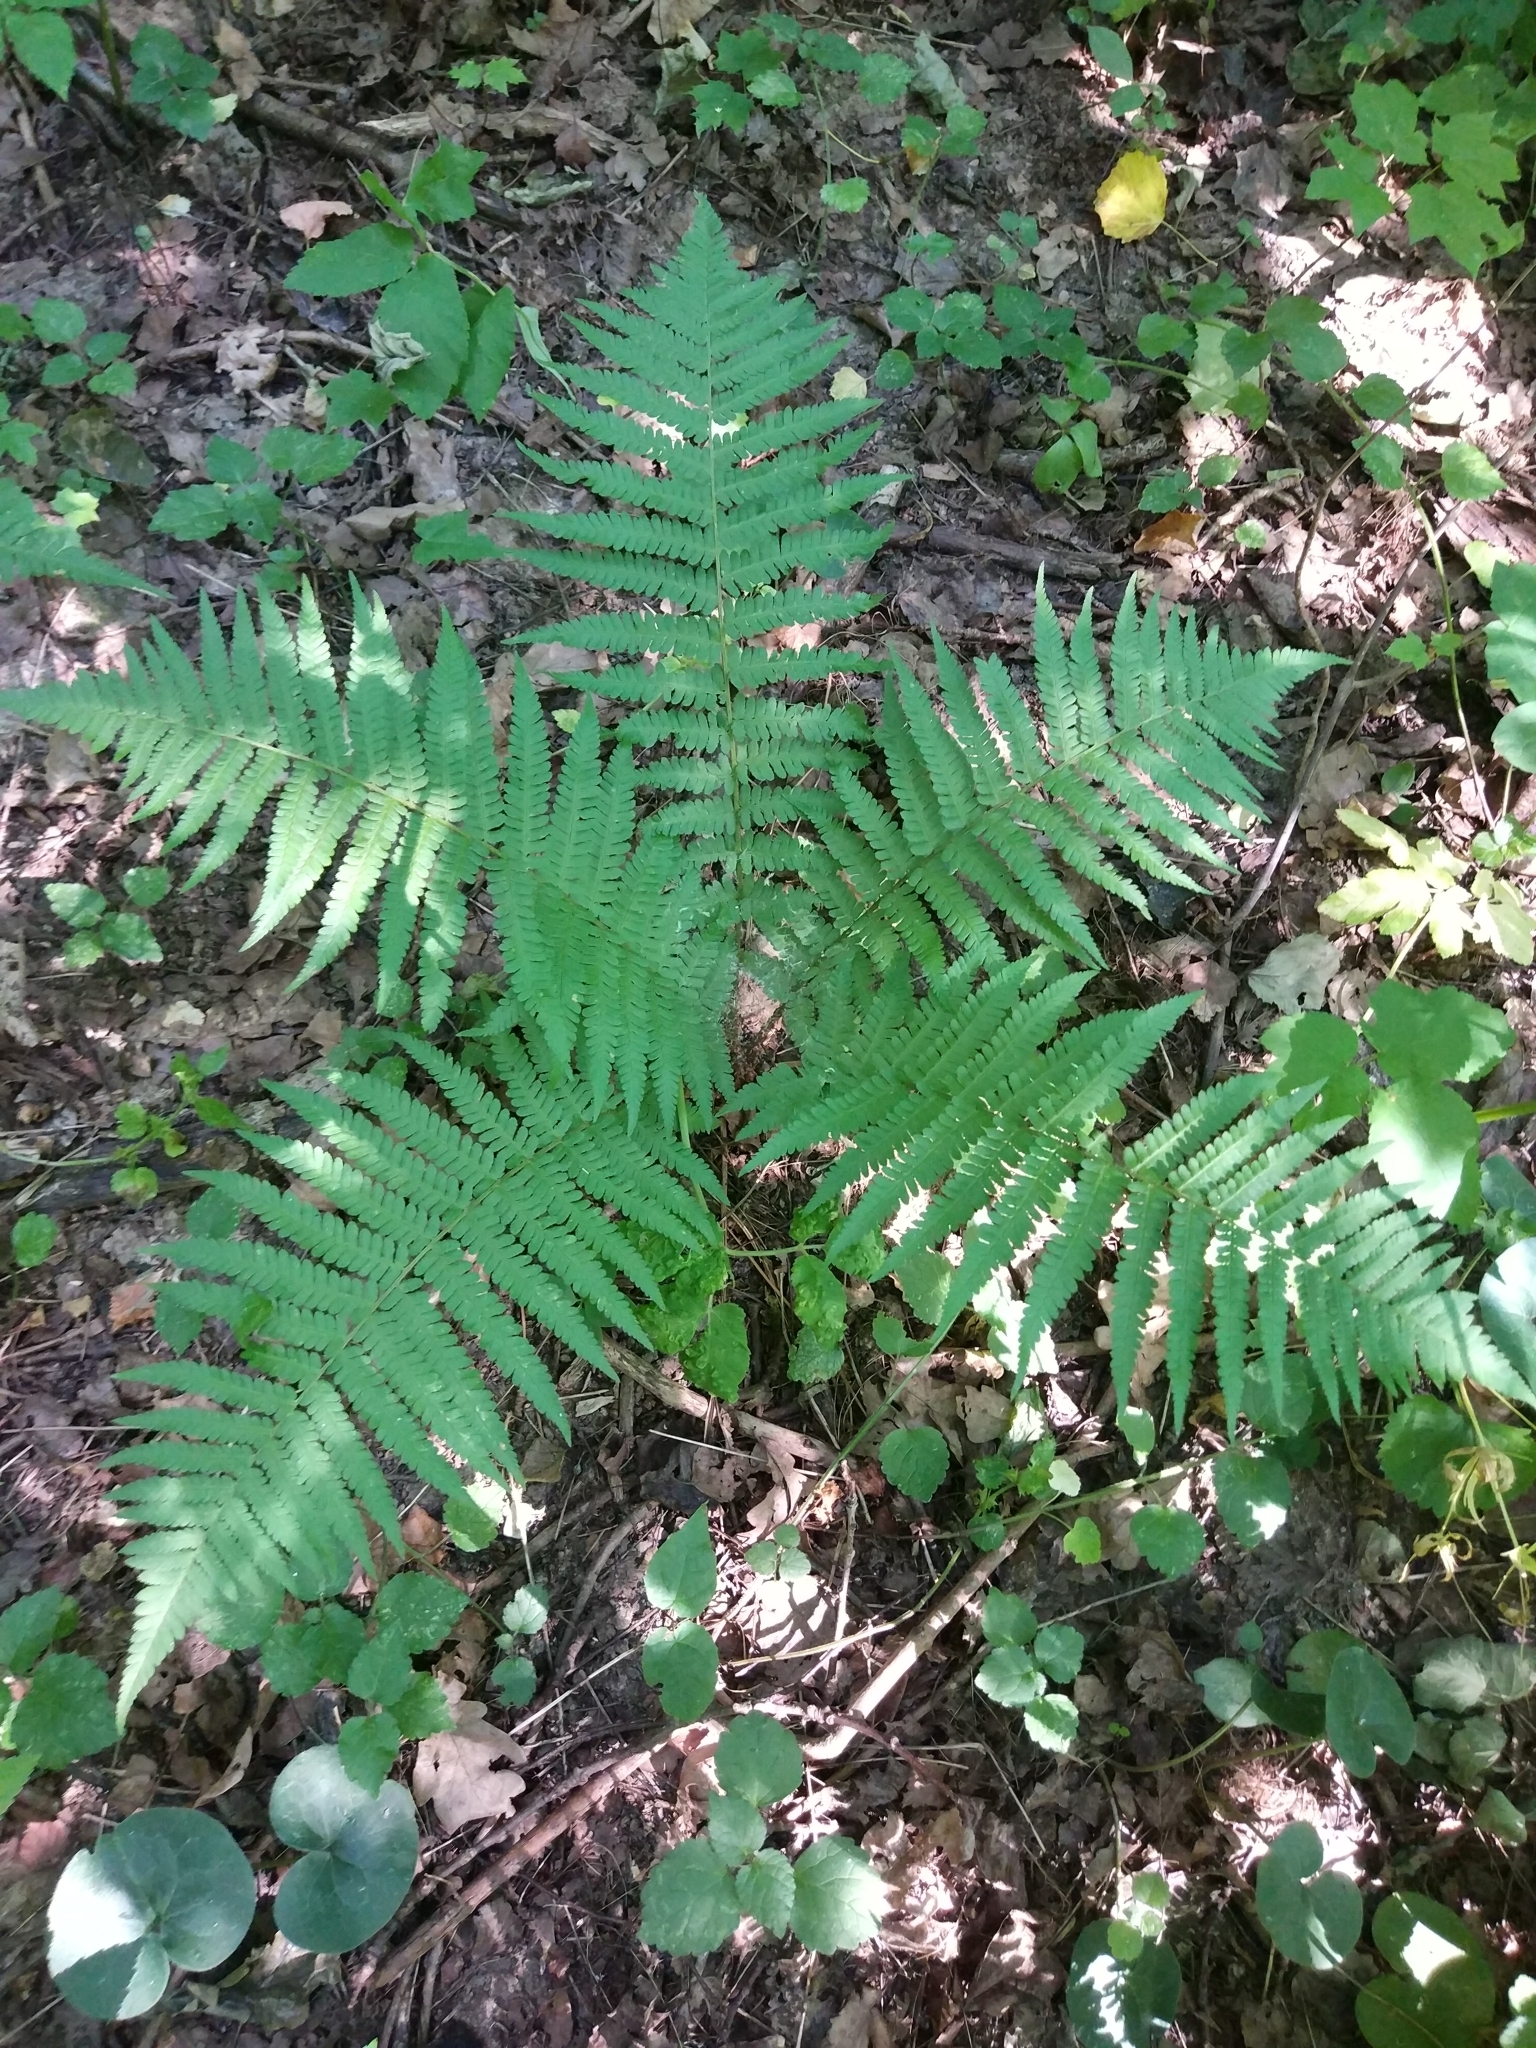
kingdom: Plantae
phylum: Tracheophyta
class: Polypodiopsida
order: Polypodiales
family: Dryopteridaceae
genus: Dryopteris
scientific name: Dryopteris filix-mas
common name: Male fern
